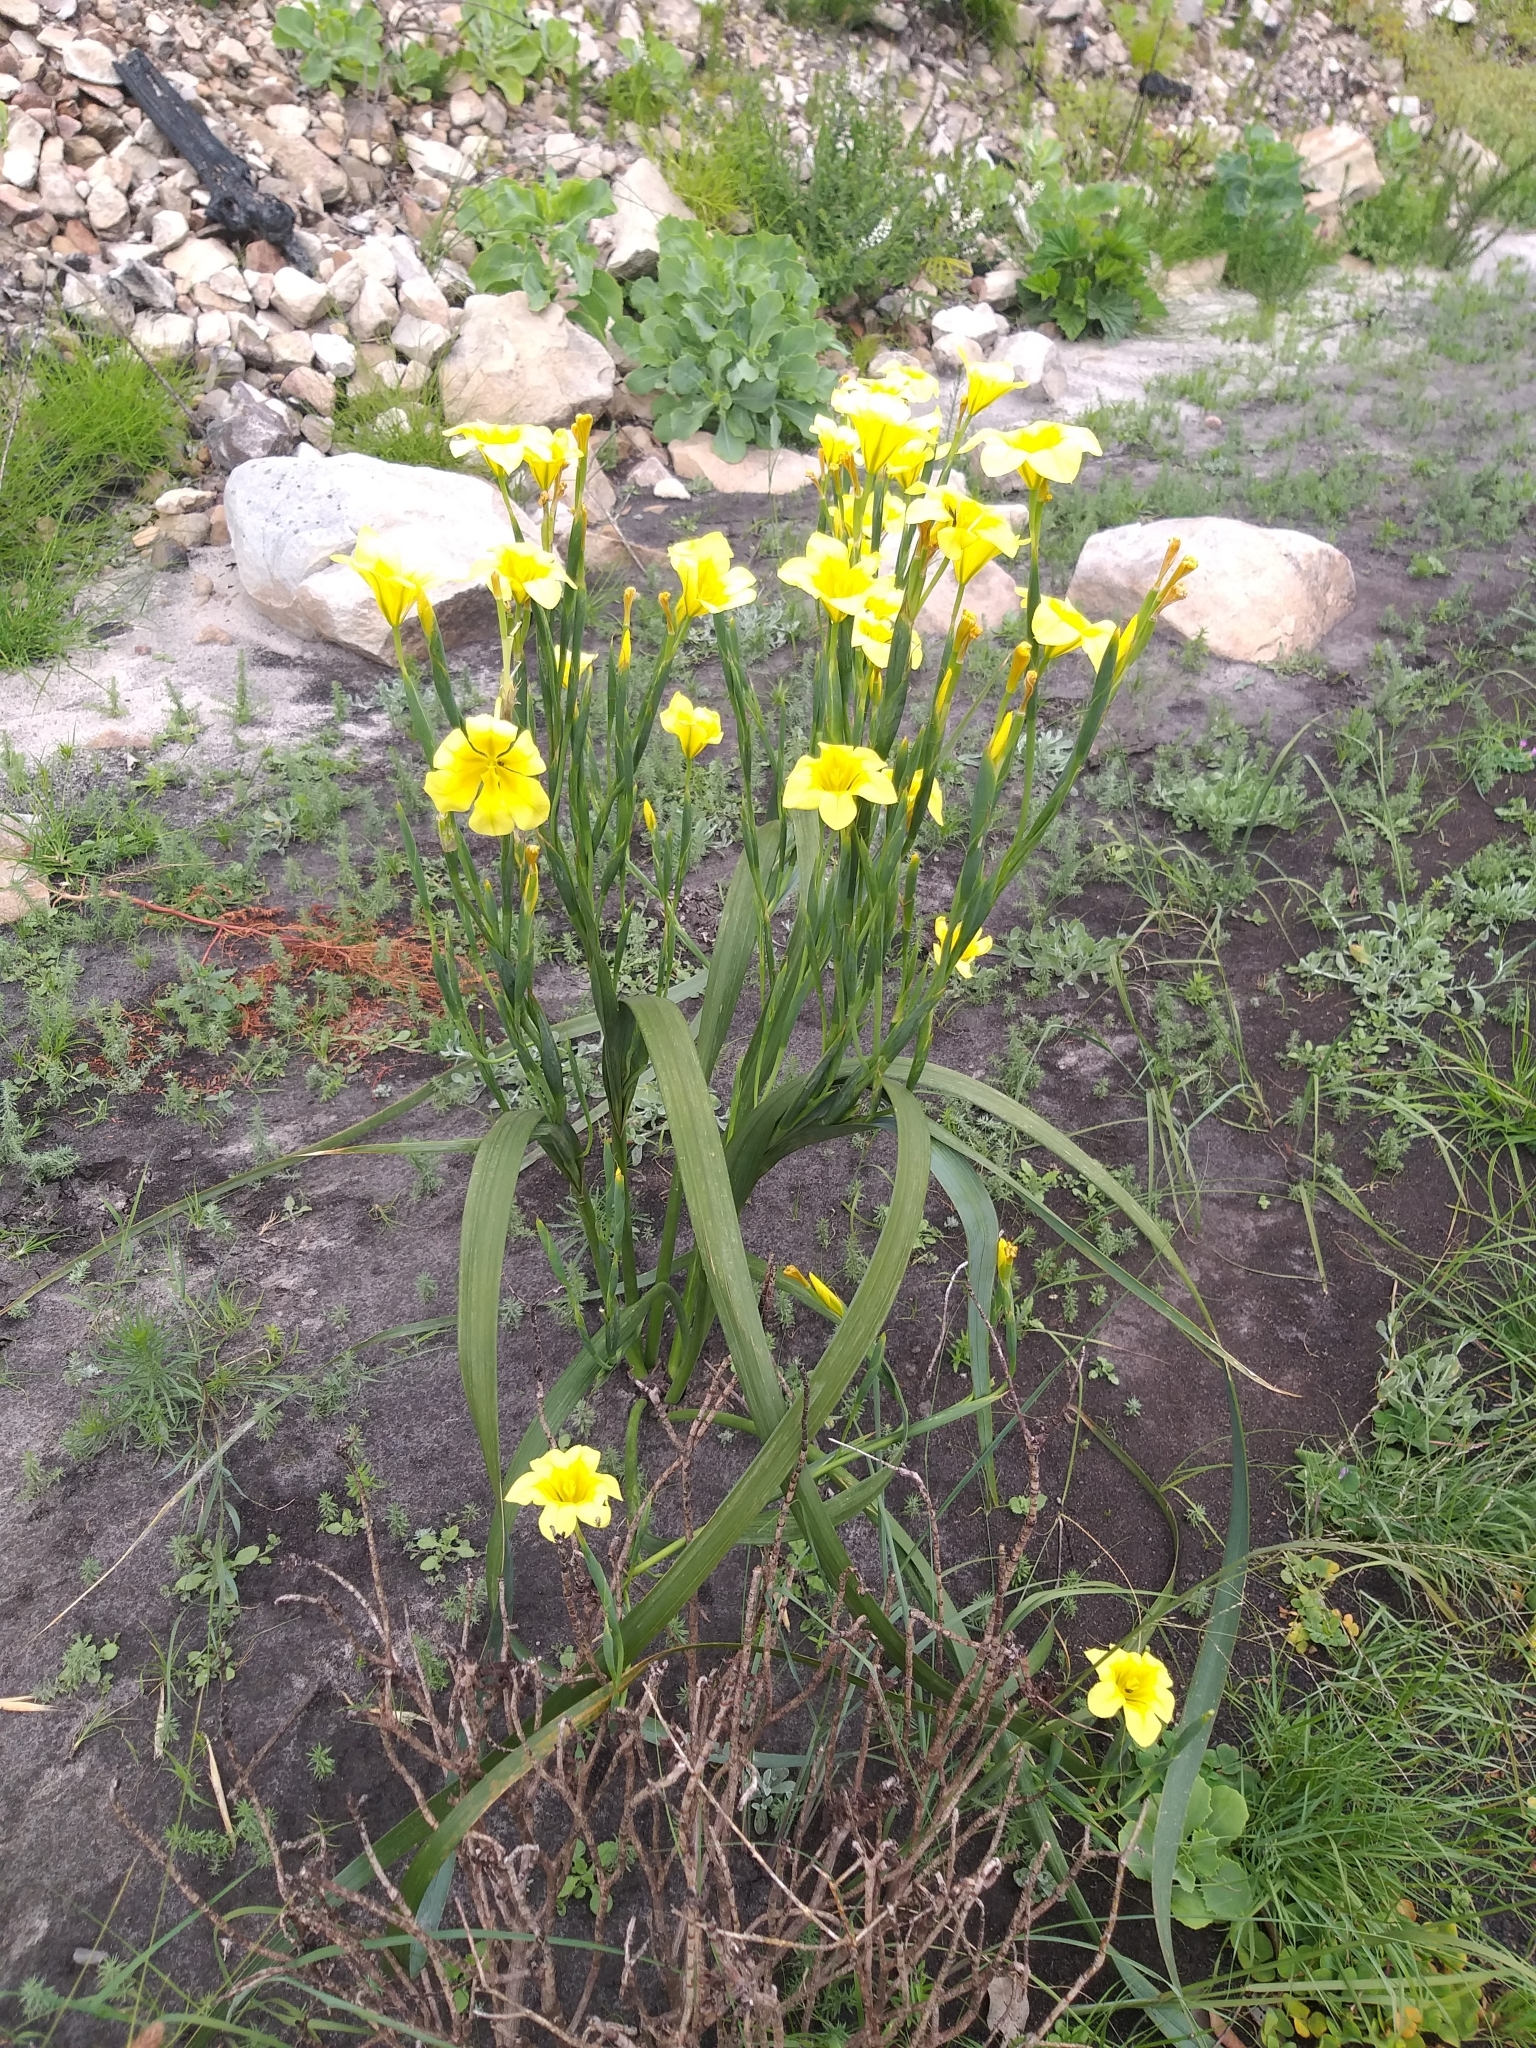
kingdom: Plantae
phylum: Tracheophyta
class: Liliopsida
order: Asparagales
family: Iridaceae
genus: Moraea
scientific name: Moraea ochroleuca
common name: Red tulp
